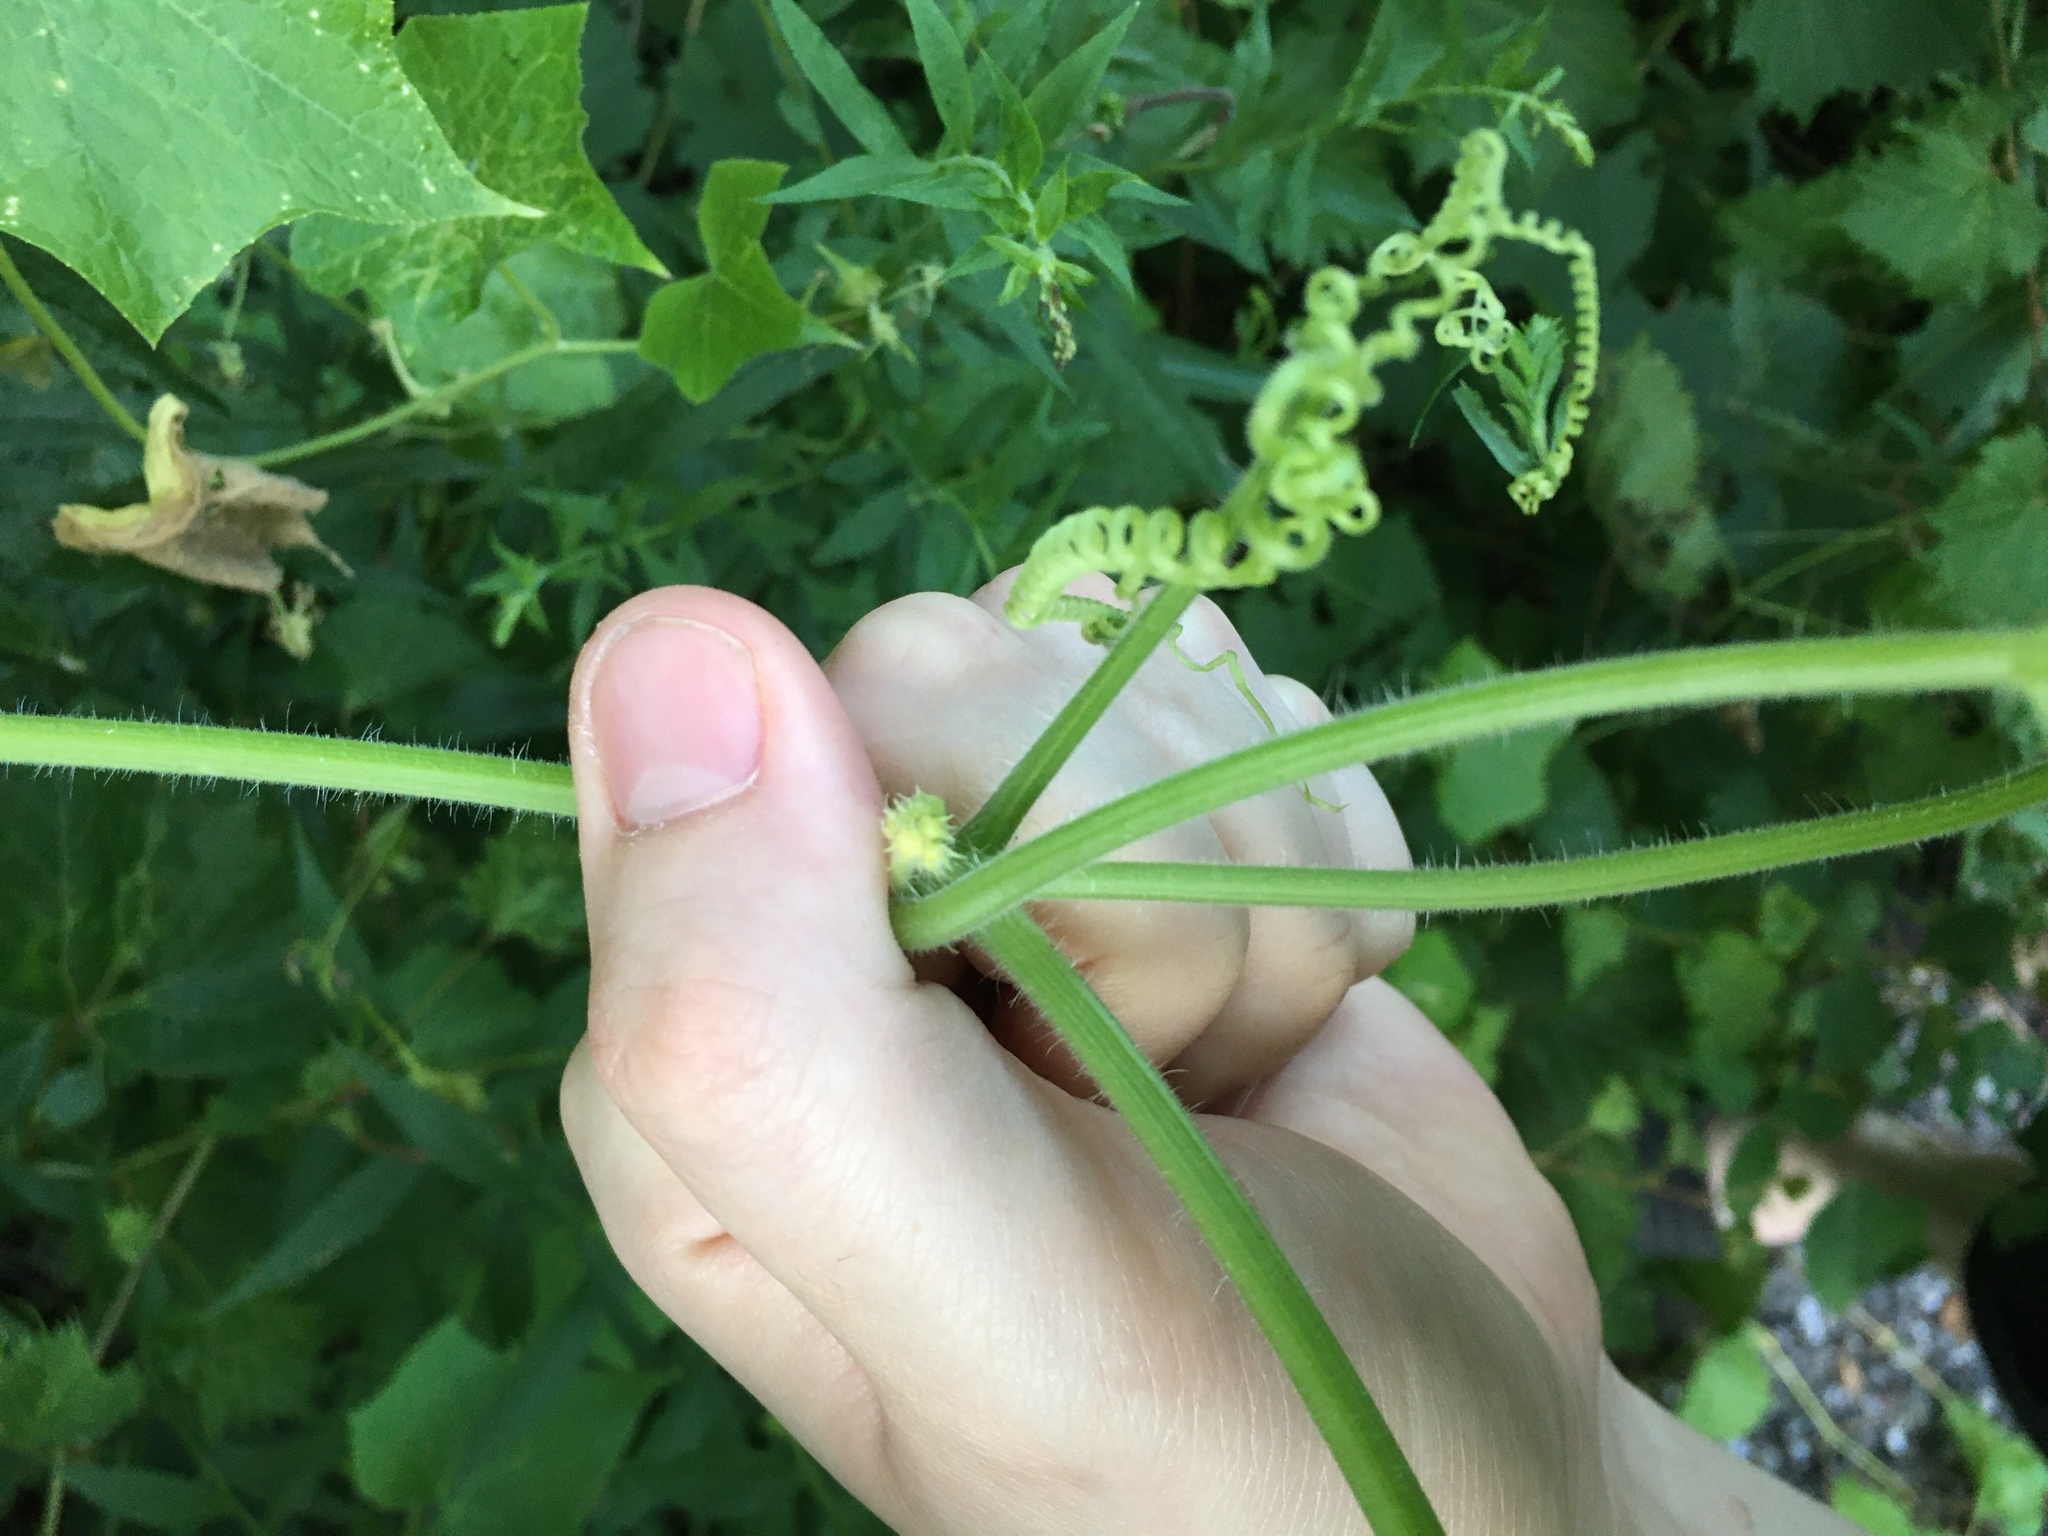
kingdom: Plantae
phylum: Tracheophyta
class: Magnoliopsida
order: Cucurbitales
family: Cucurbitaceae
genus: Sicyos
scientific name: Sicyos angulatus
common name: Angled burr cucumber
